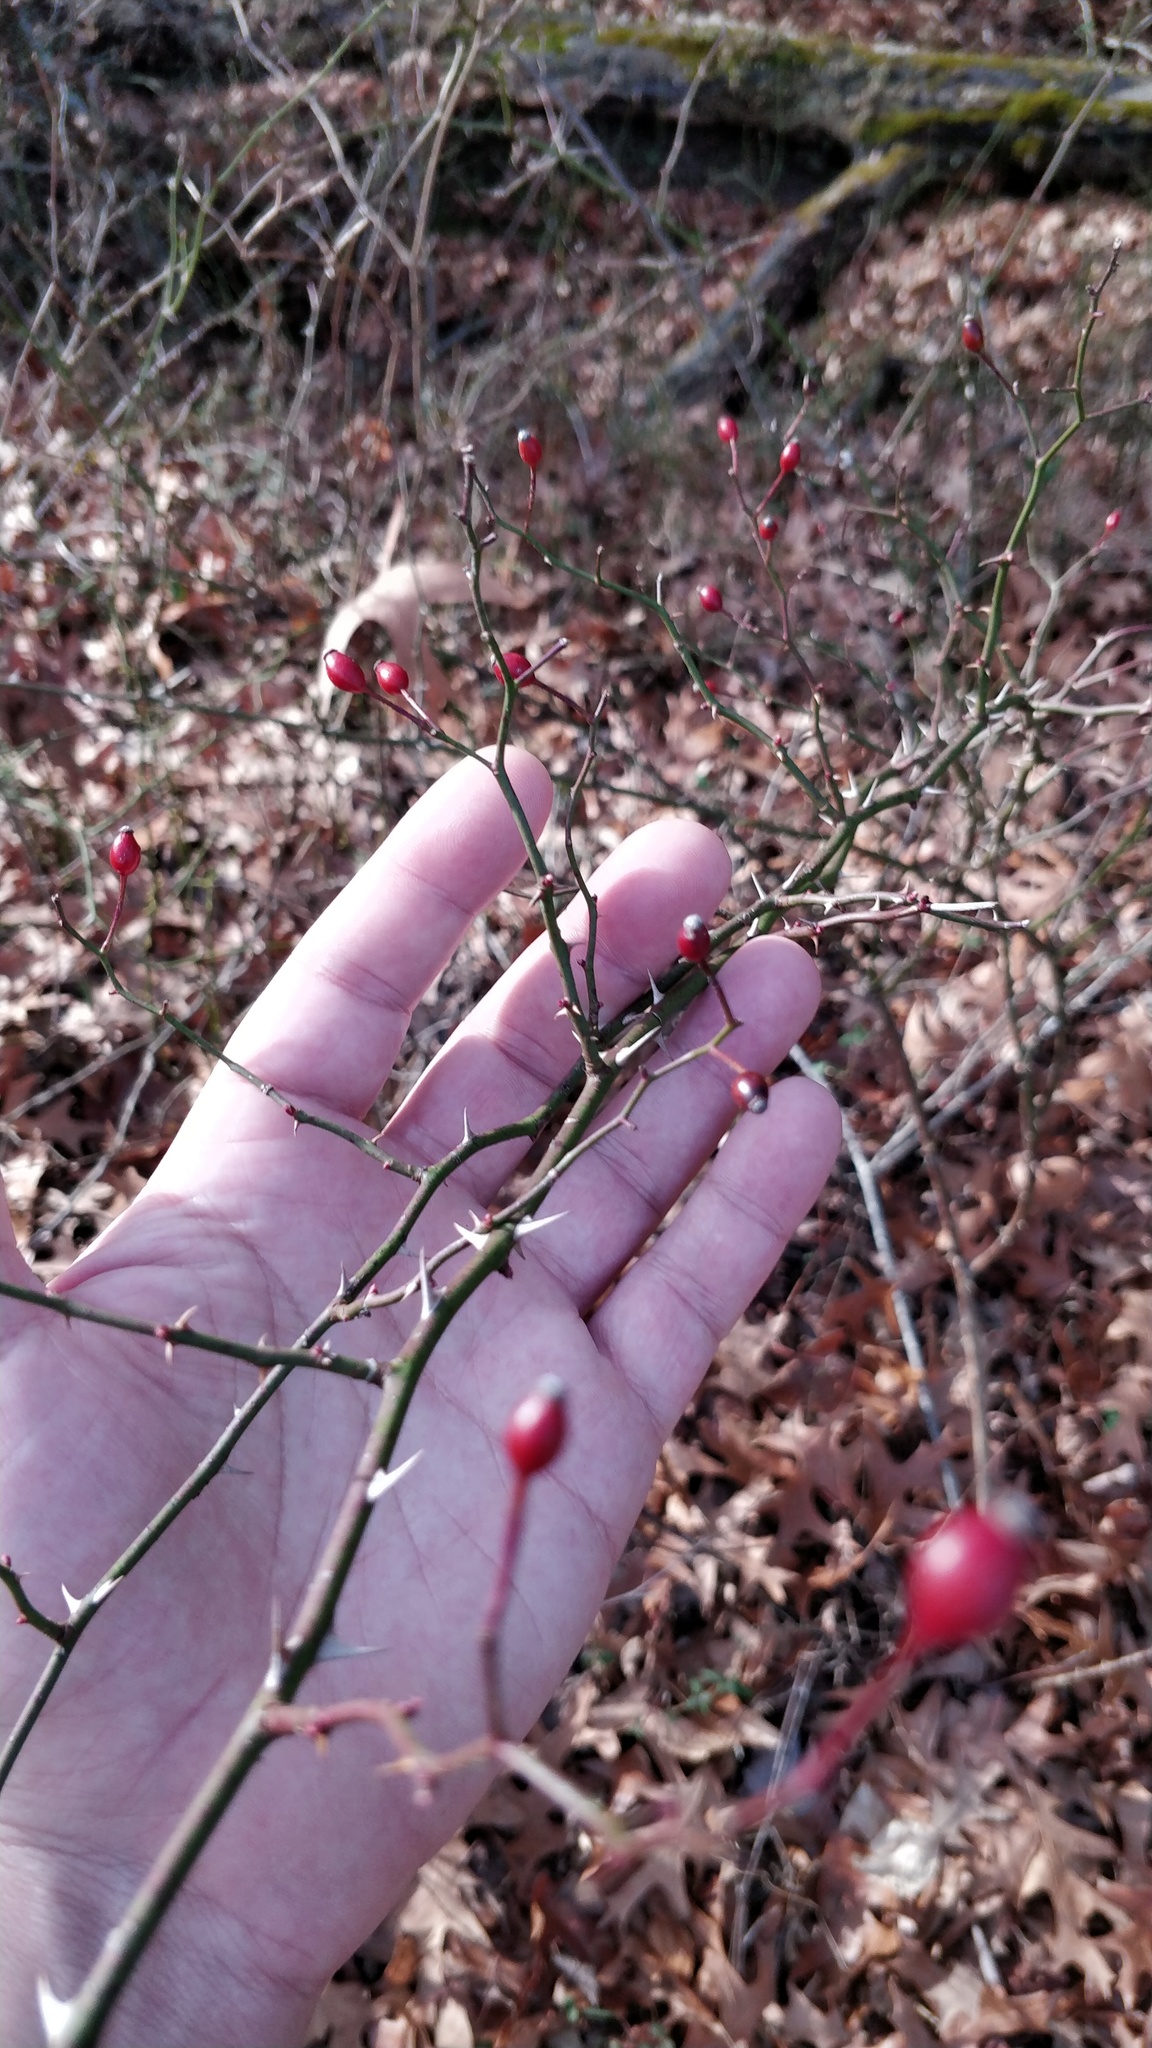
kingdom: Plantae
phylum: Tracheophyta
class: Magnoliopsida
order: Rosales
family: Rosaceae
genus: Rosa
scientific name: Rosa multiflora
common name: Multiflora rose
